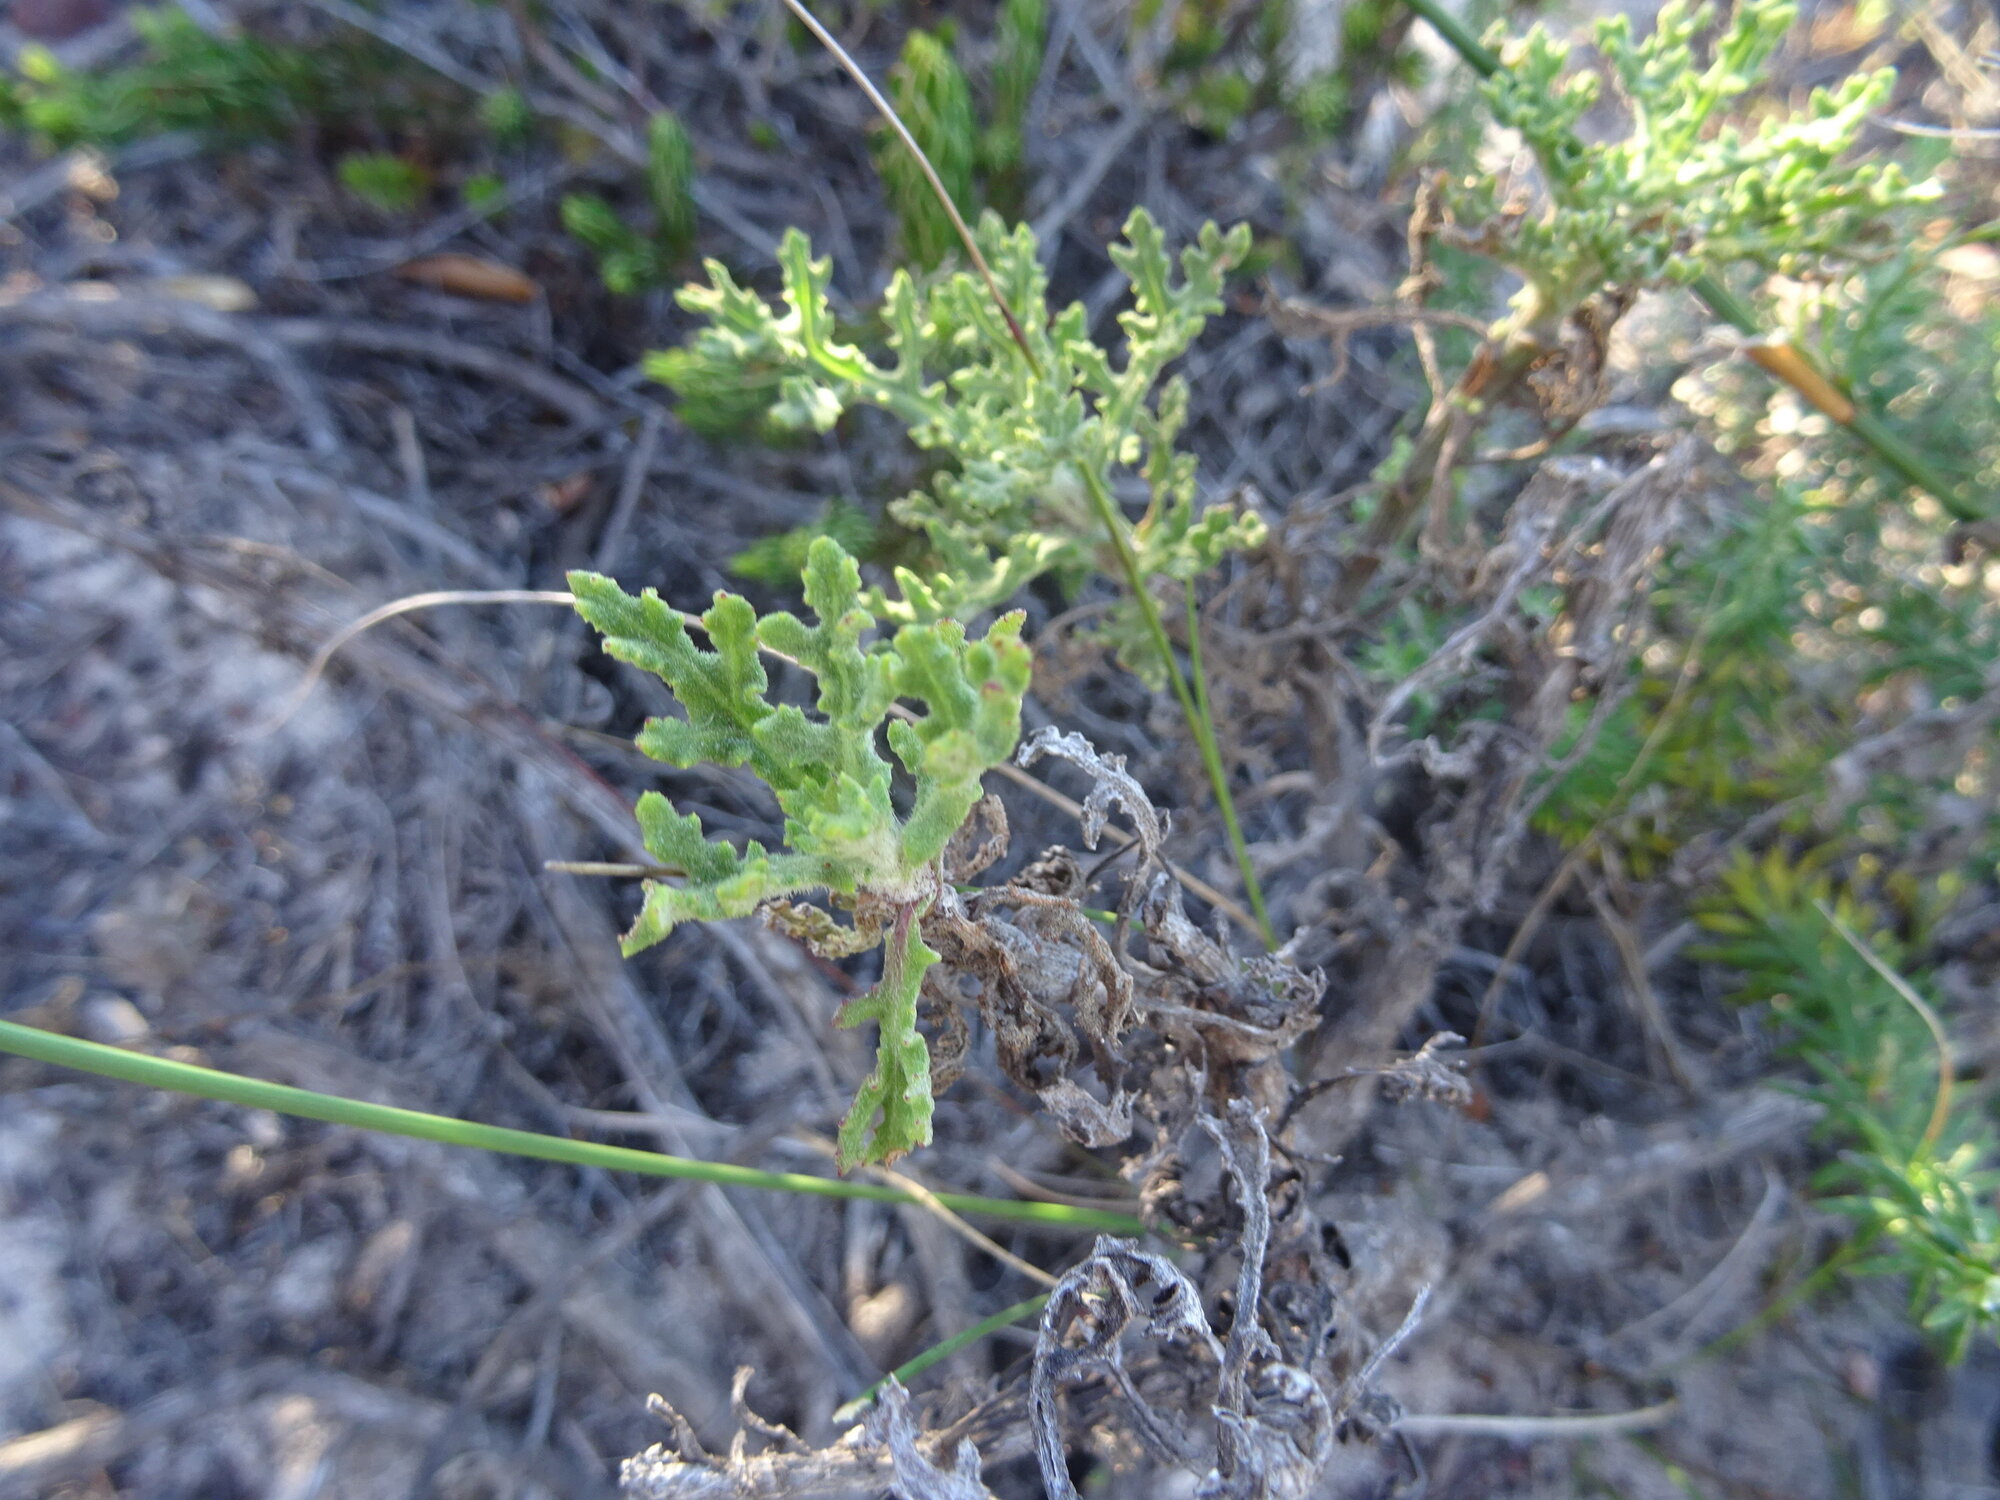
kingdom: Plantae
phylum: Tracheophyta
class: Magnoliopsida
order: Asterales
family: Asteraceae
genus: Arctotis
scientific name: Arctotis aspera
